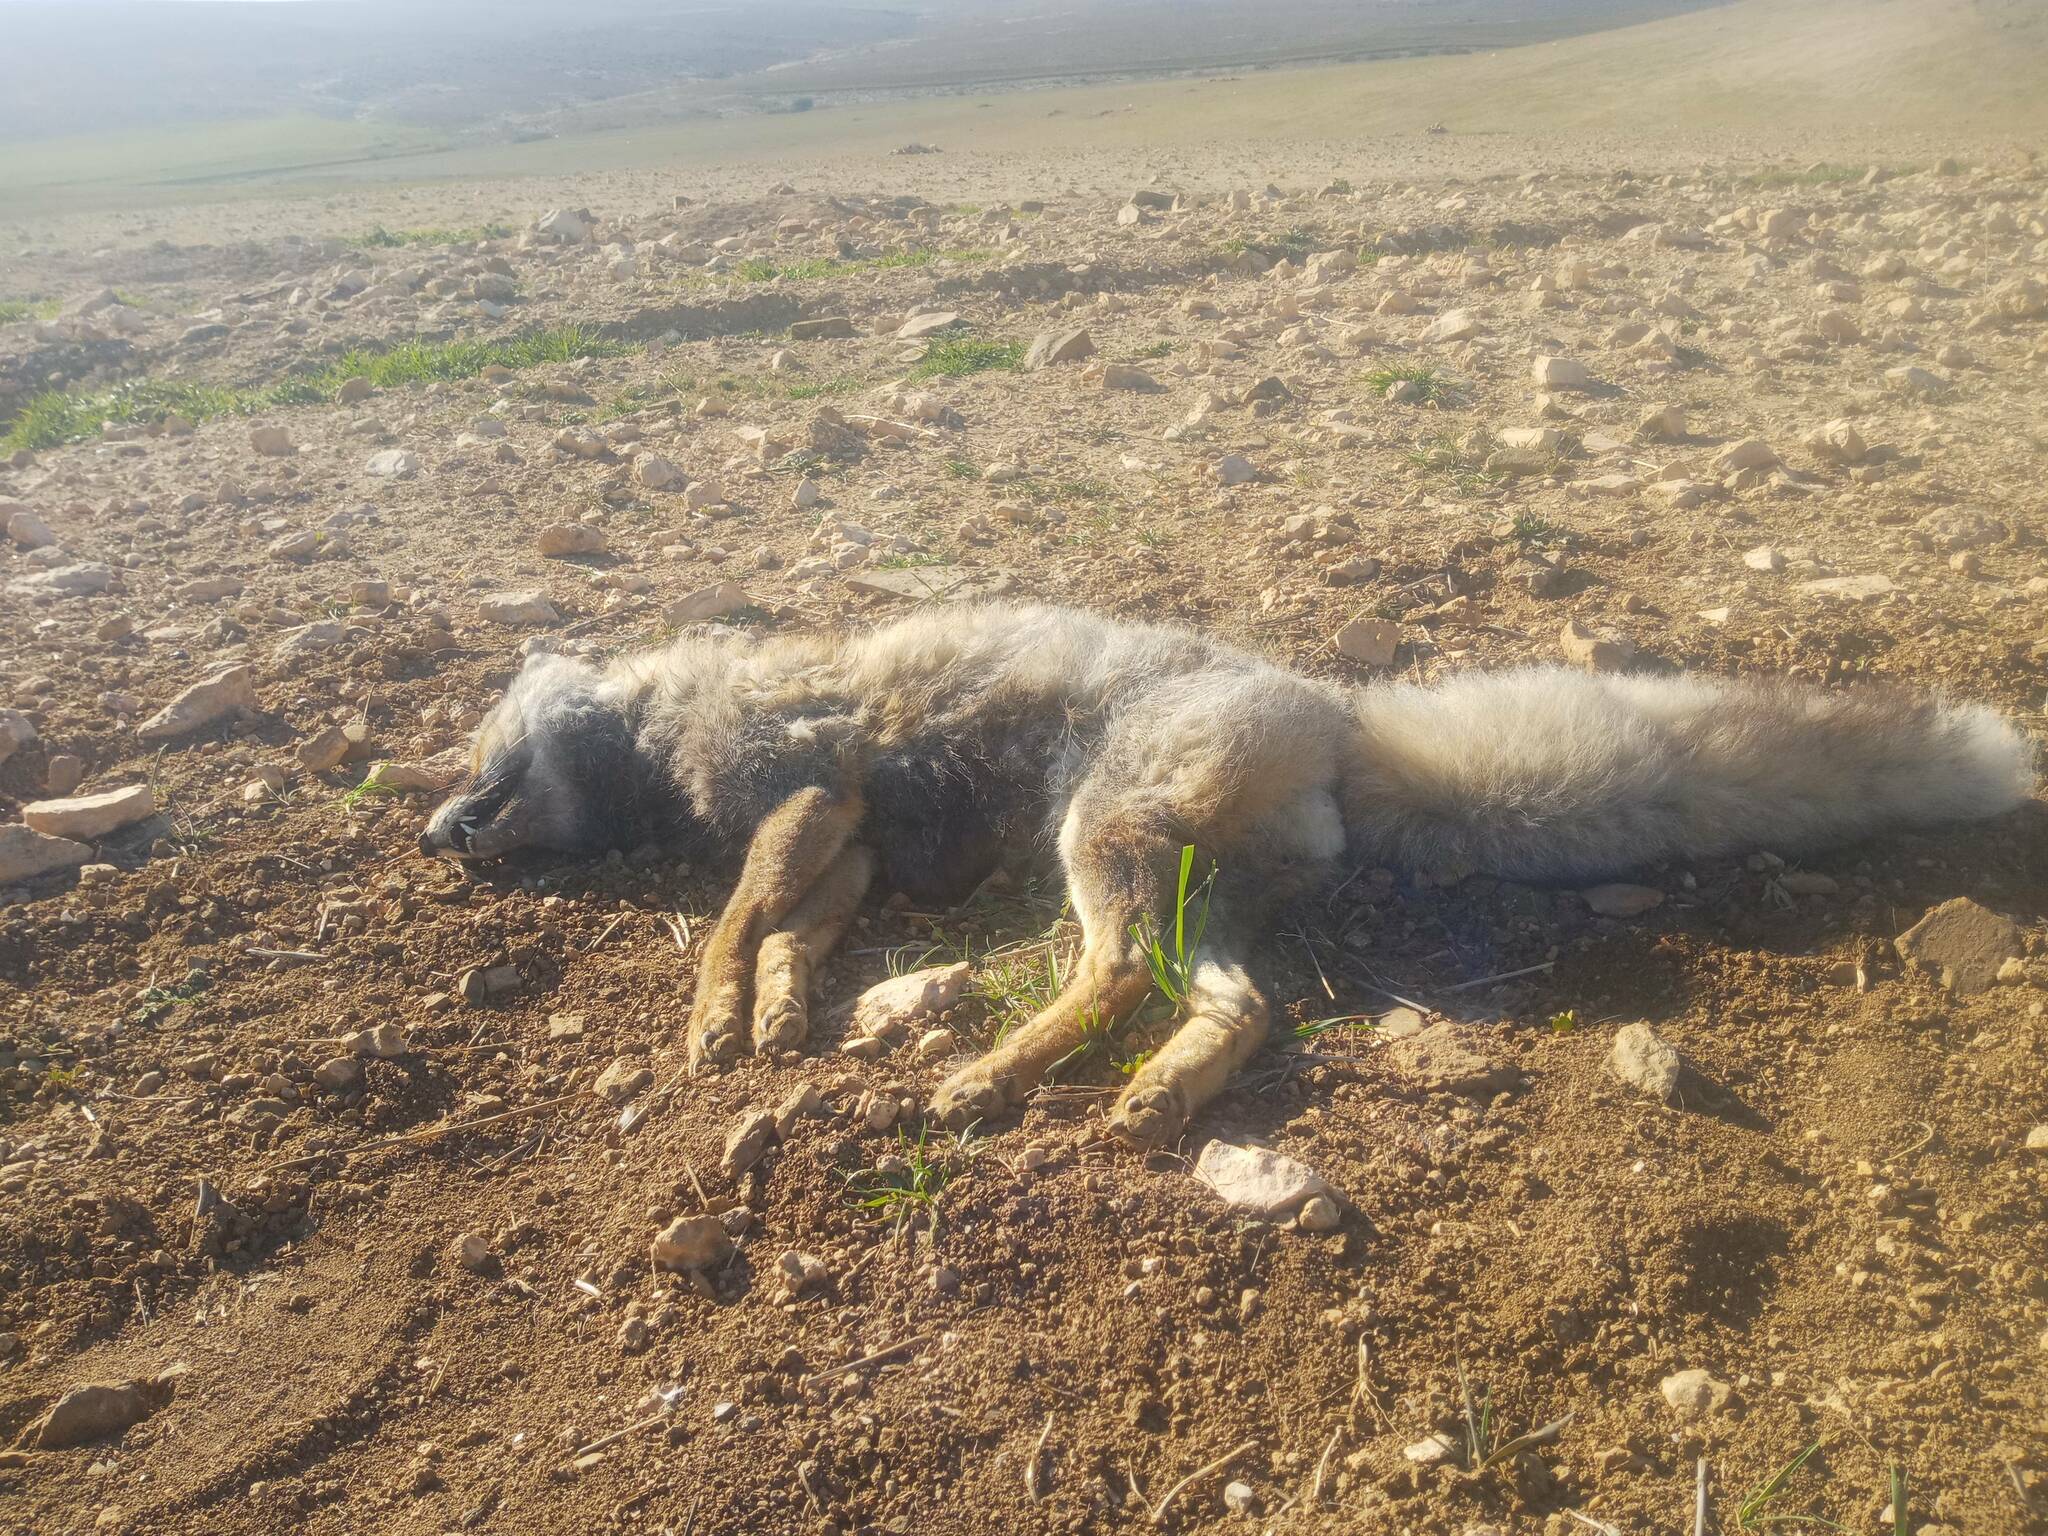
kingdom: Animalia
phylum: Chordata
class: Mammalia
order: Carnivora
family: Canidae
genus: Vulpes
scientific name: Vulpes vulpes
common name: Red fox
